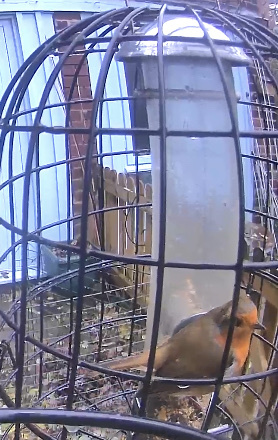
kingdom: Animalia
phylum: Chordata
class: Aves
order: Passeriformes
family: Muscicapidae
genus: Erithacus
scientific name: Erithacus rubecula
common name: European robin
